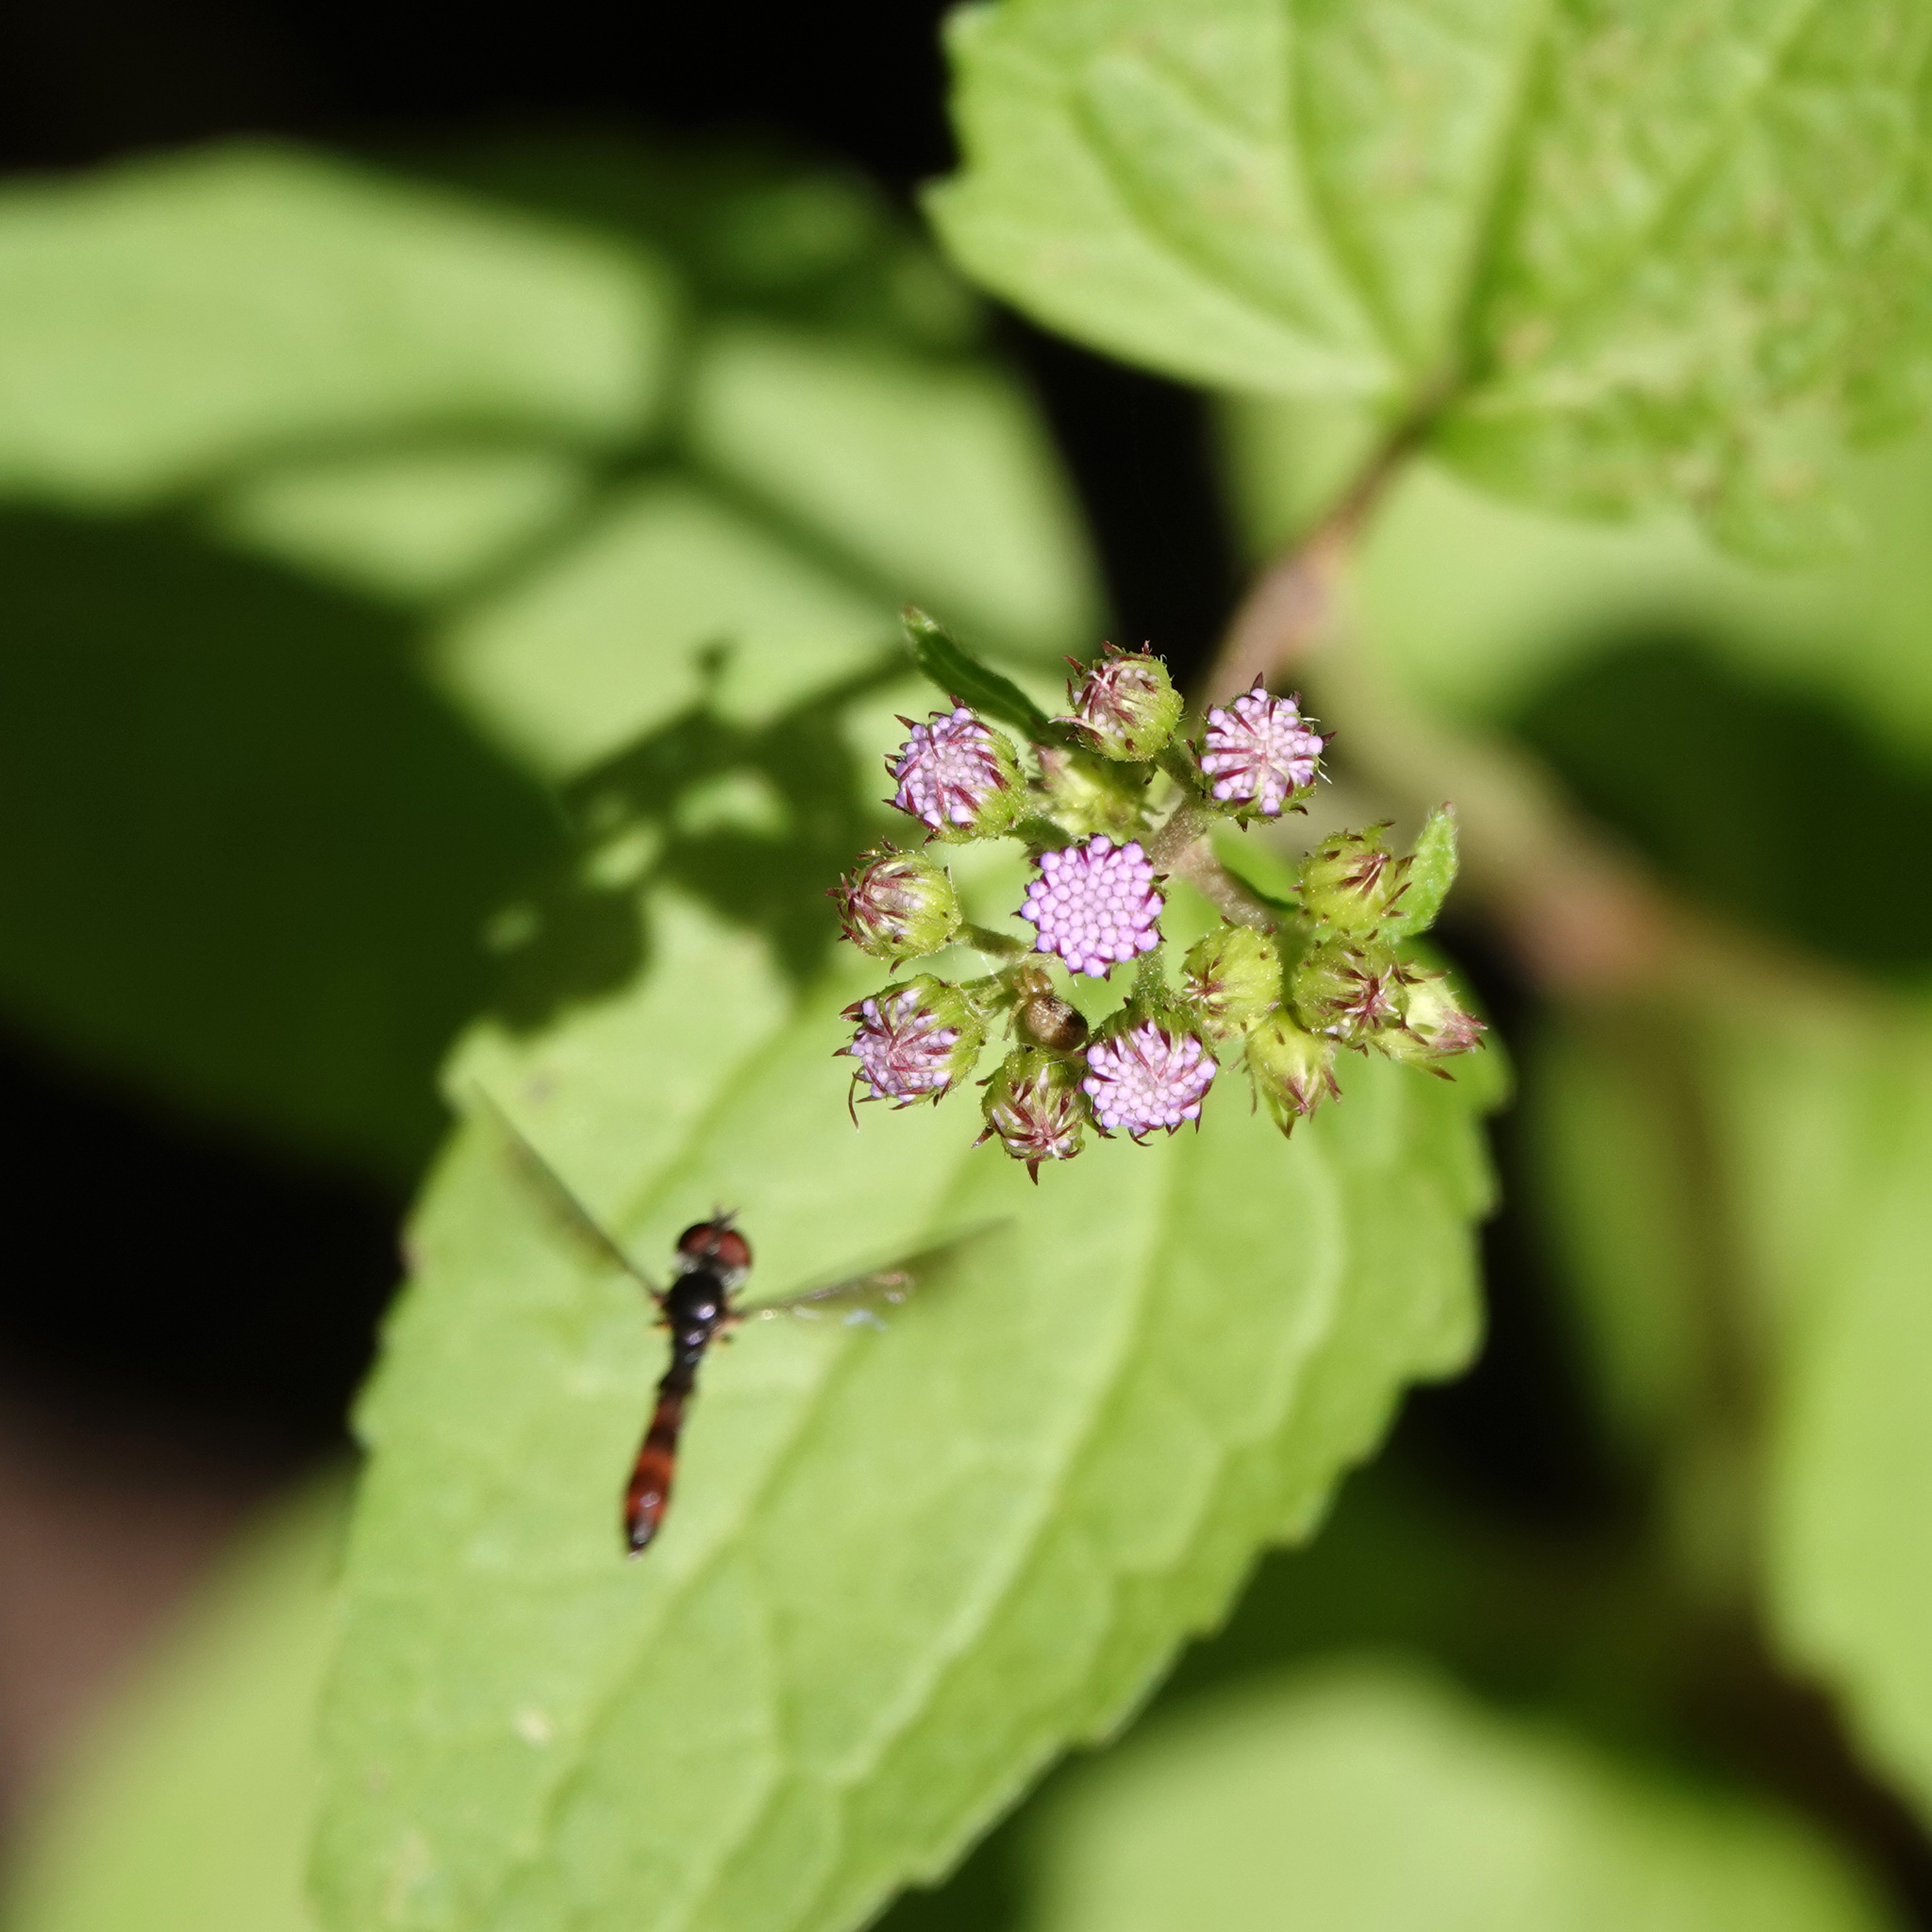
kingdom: Animalia
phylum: Arthropoda
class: Insecta
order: Diptera
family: Syrphidae
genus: Ocyptamus
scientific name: Ocyptamus fuscipennis
